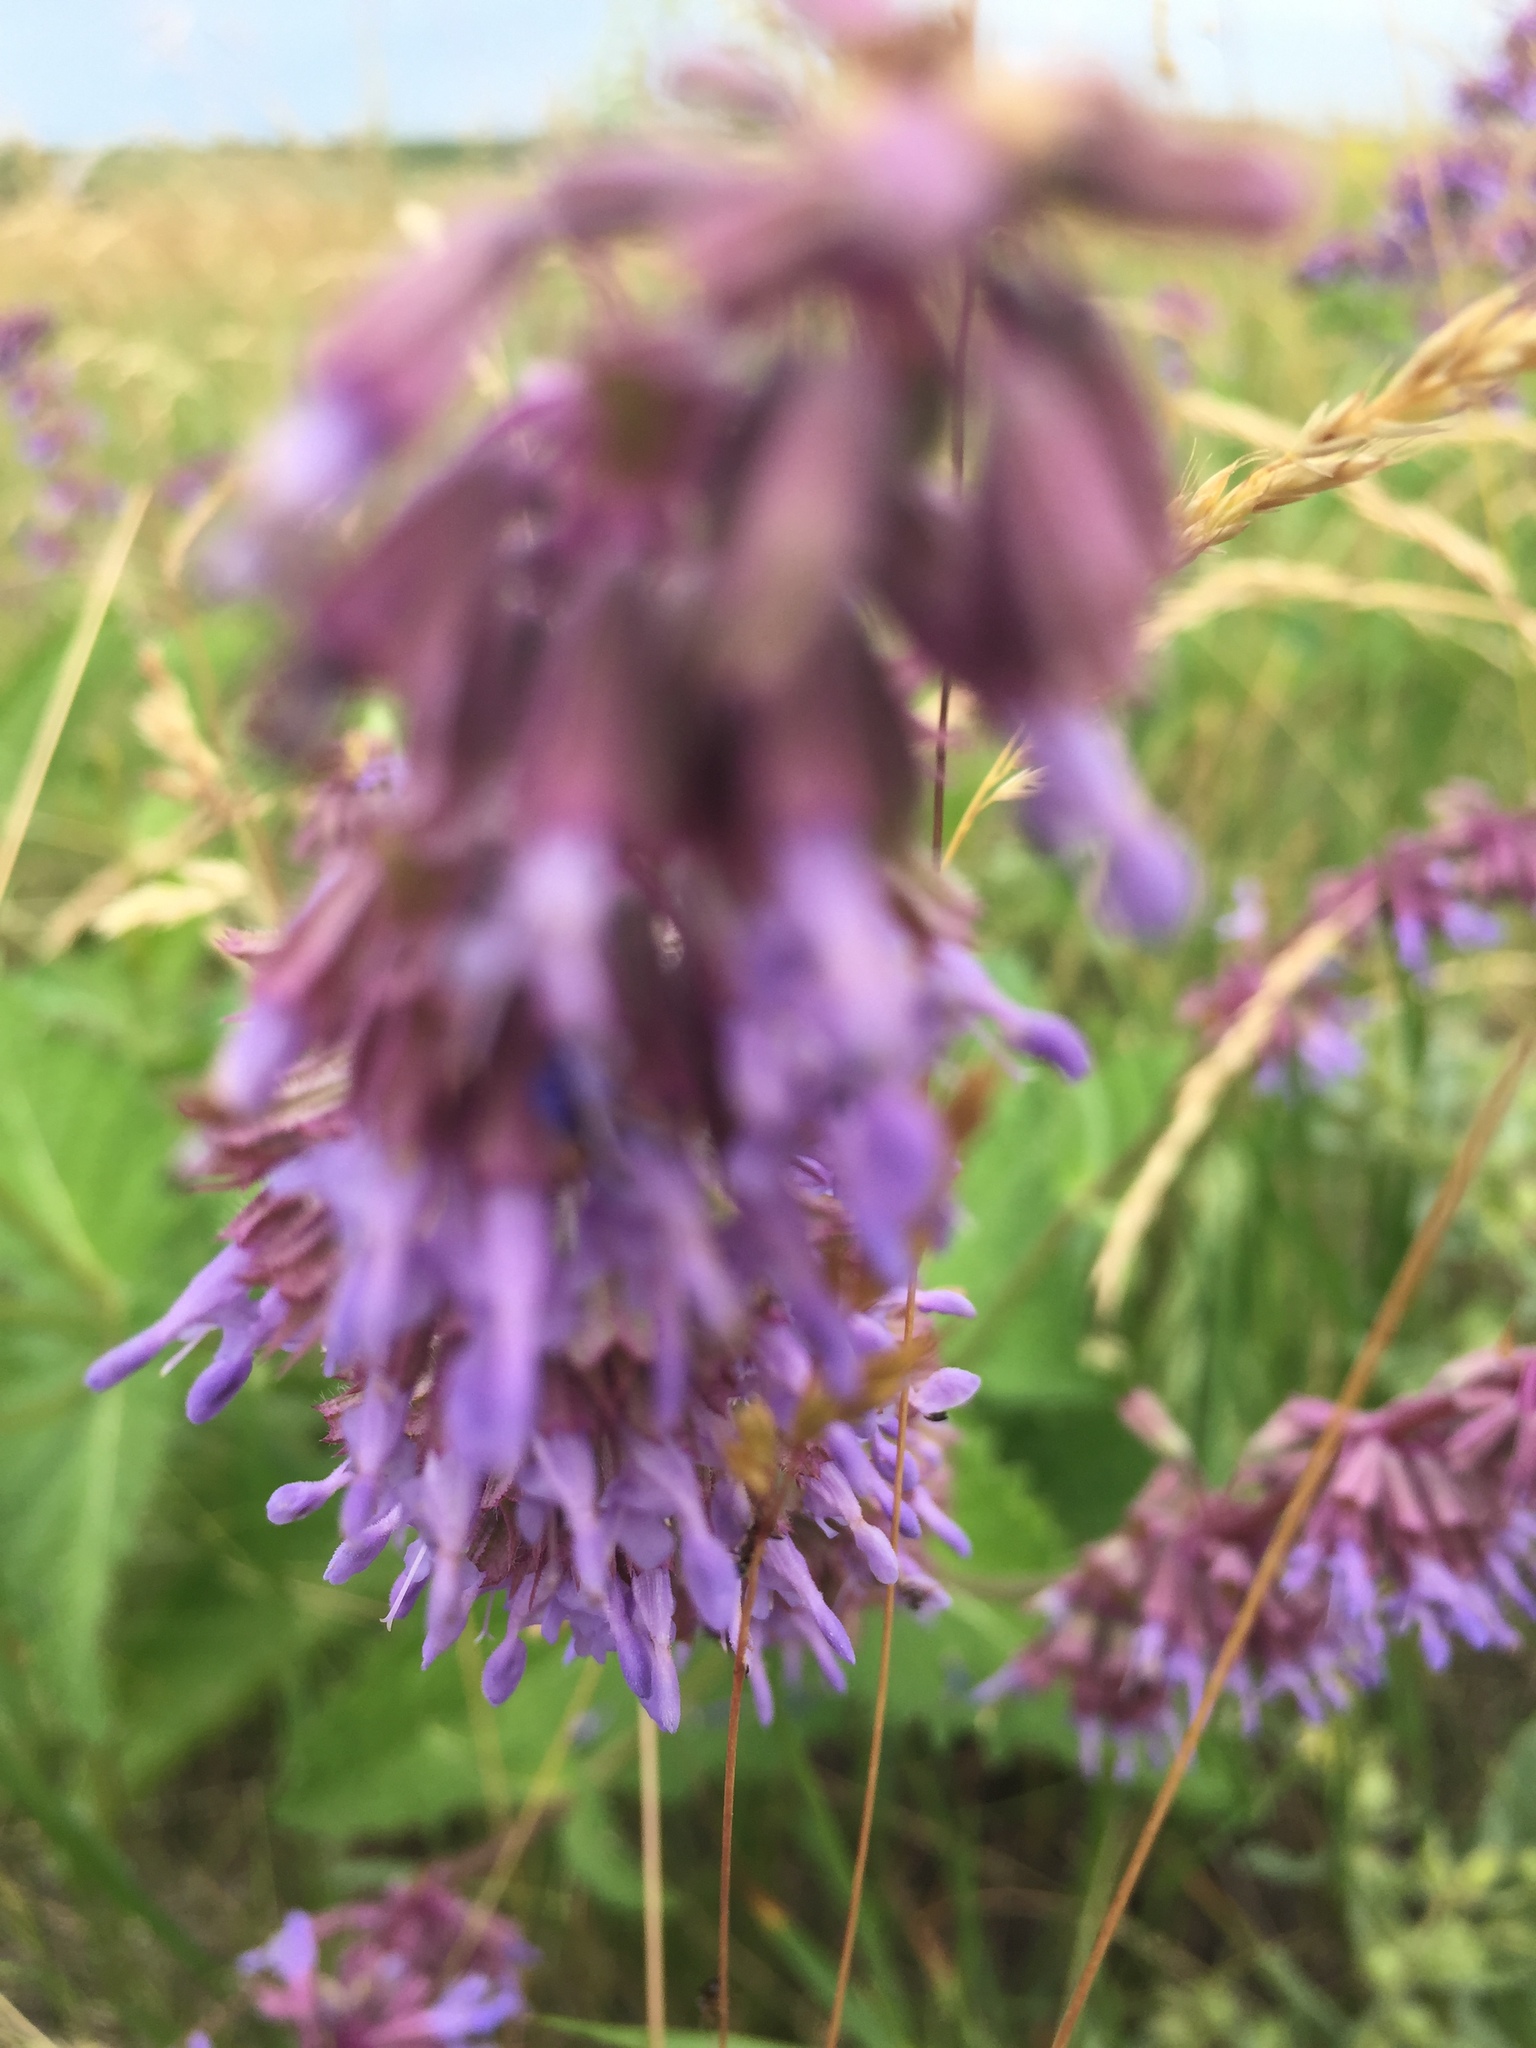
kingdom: Plantae
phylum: Tracheophyta
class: Magnoliopsida
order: Lamiales
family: Lamiaceae
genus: Salvia
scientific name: Salvia verticillata
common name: Whorled clary
